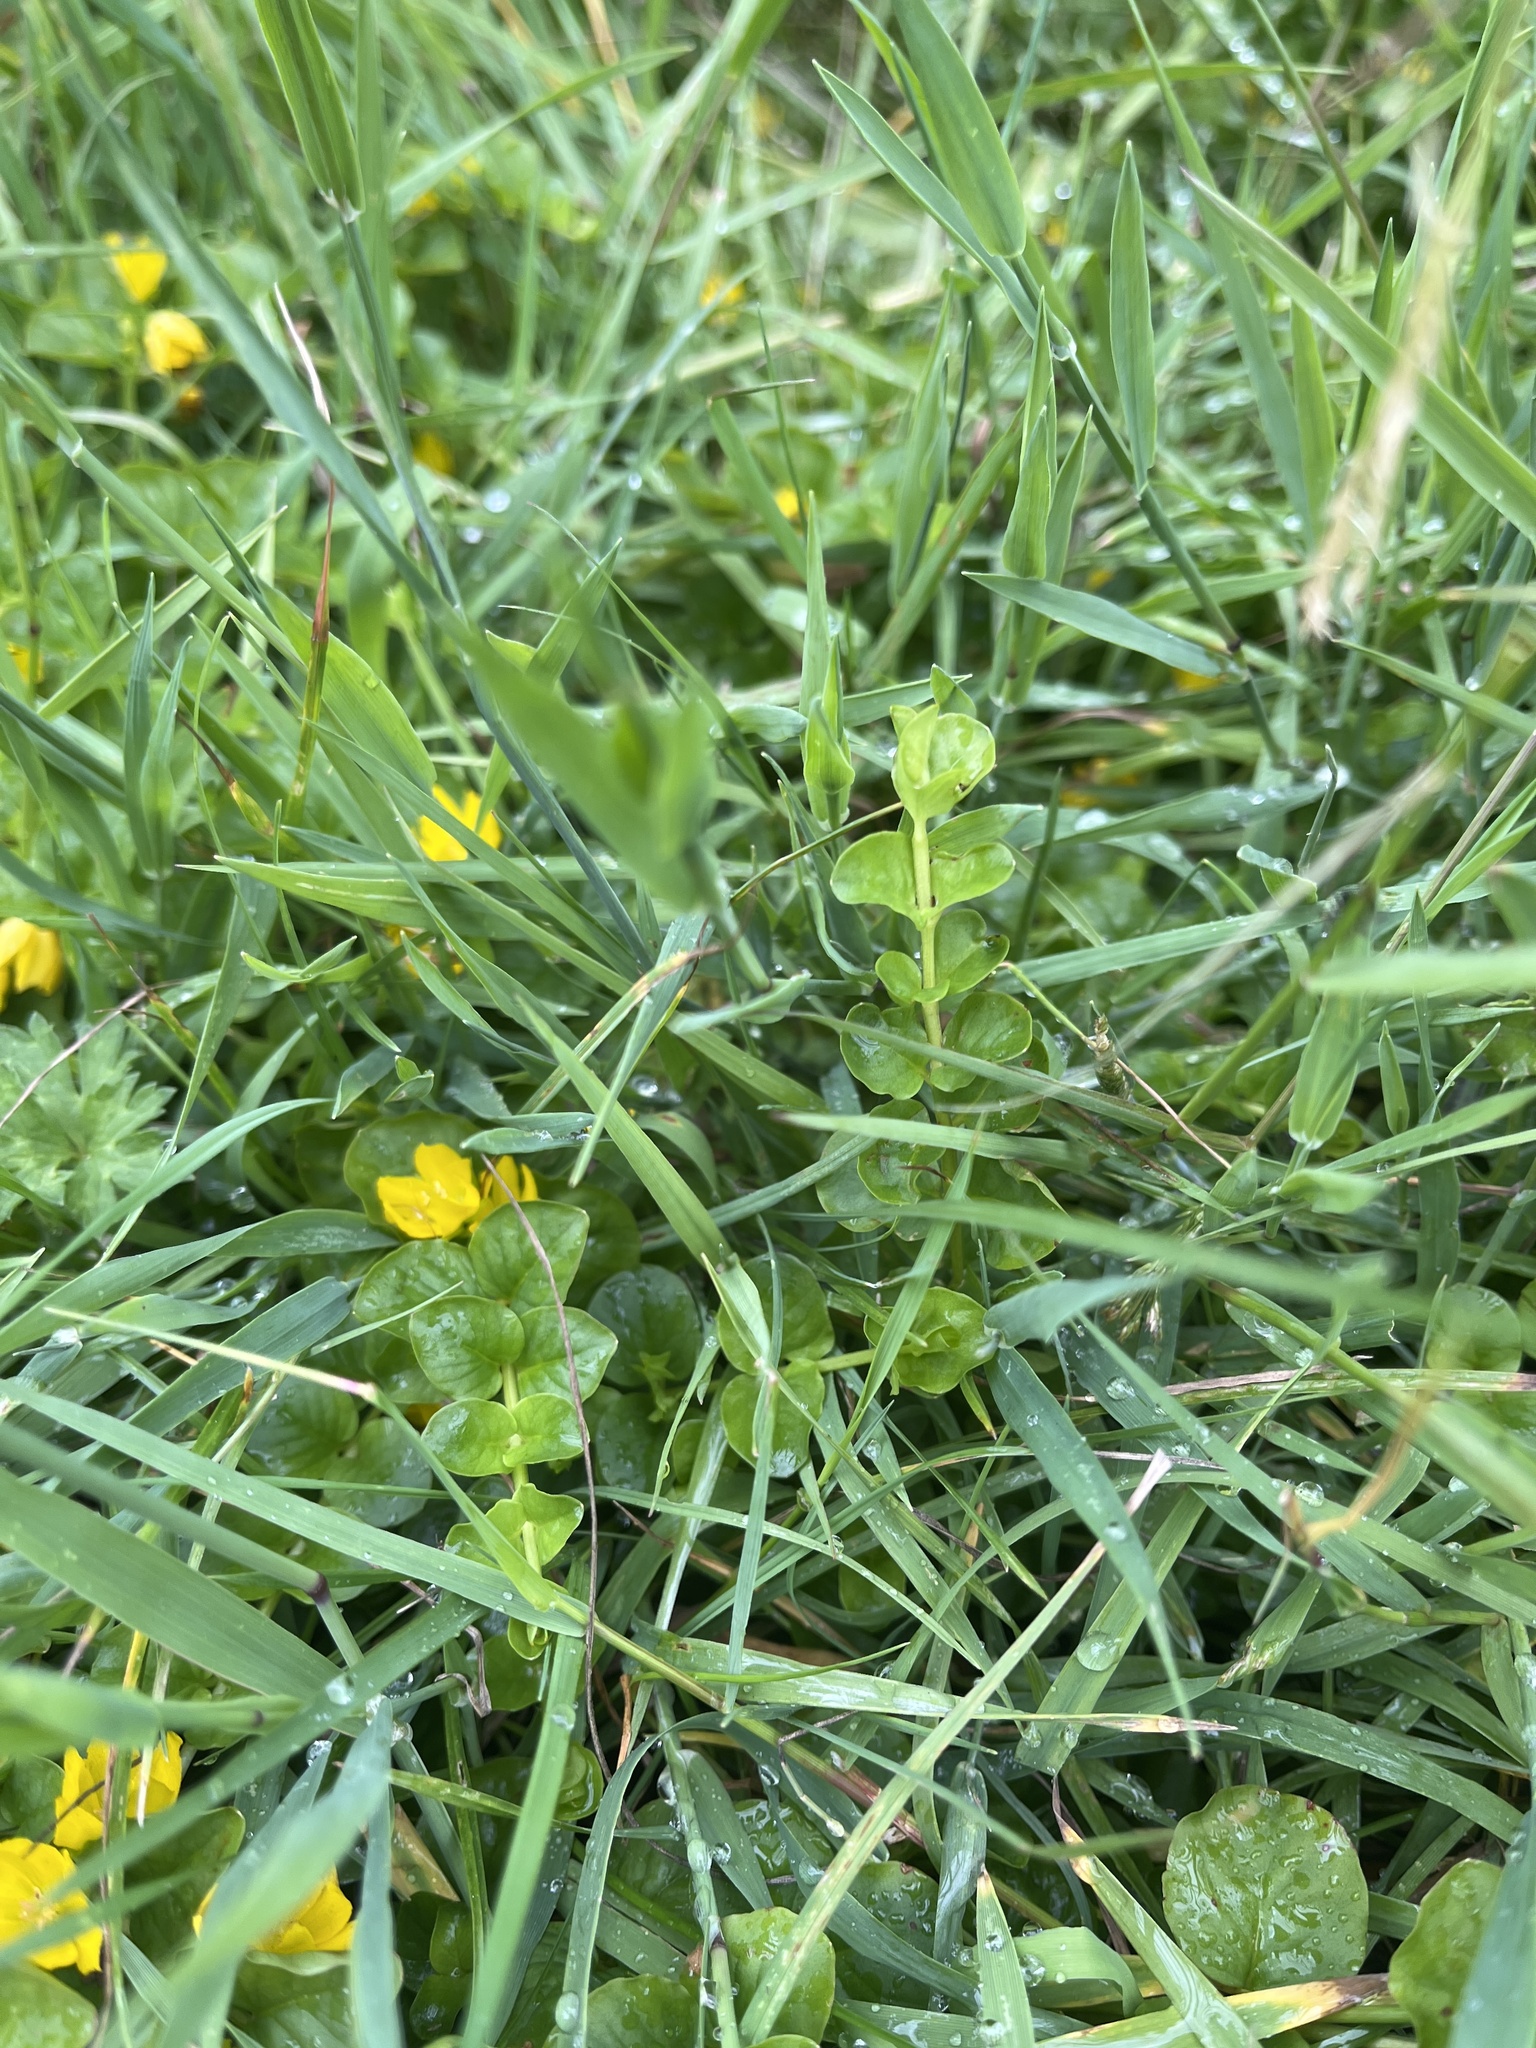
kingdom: Plantae
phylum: Tracheophyta
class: Magnoliopsida
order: Ericales
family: Primulaceae
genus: Lysimachia
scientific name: Lysimachia nummularia
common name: Moneywort
